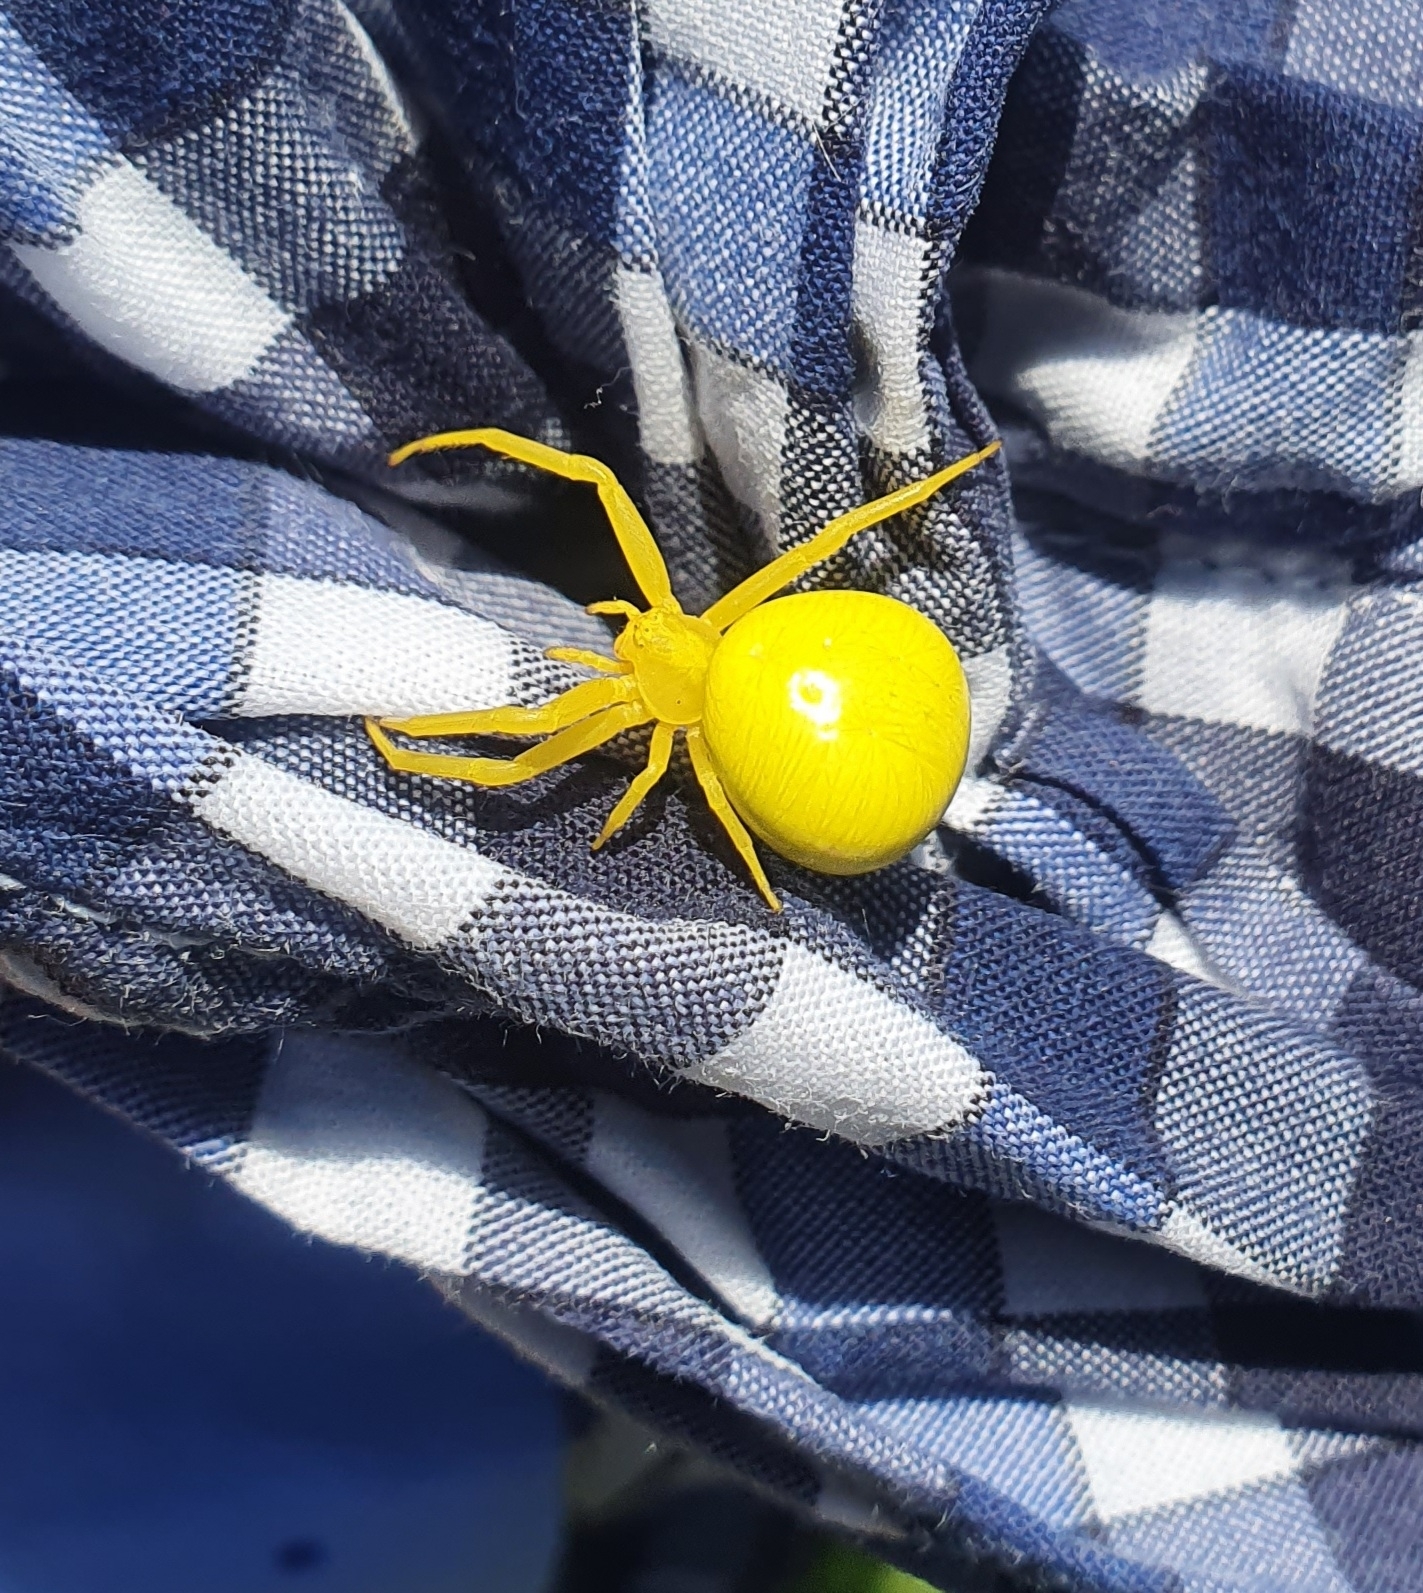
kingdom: Animalia
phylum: Arthropoda
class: Arachnida
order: Araneae
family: Thomisidae
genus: Misumena
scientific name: Misumena vatia
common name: Goldenrod crab spider
